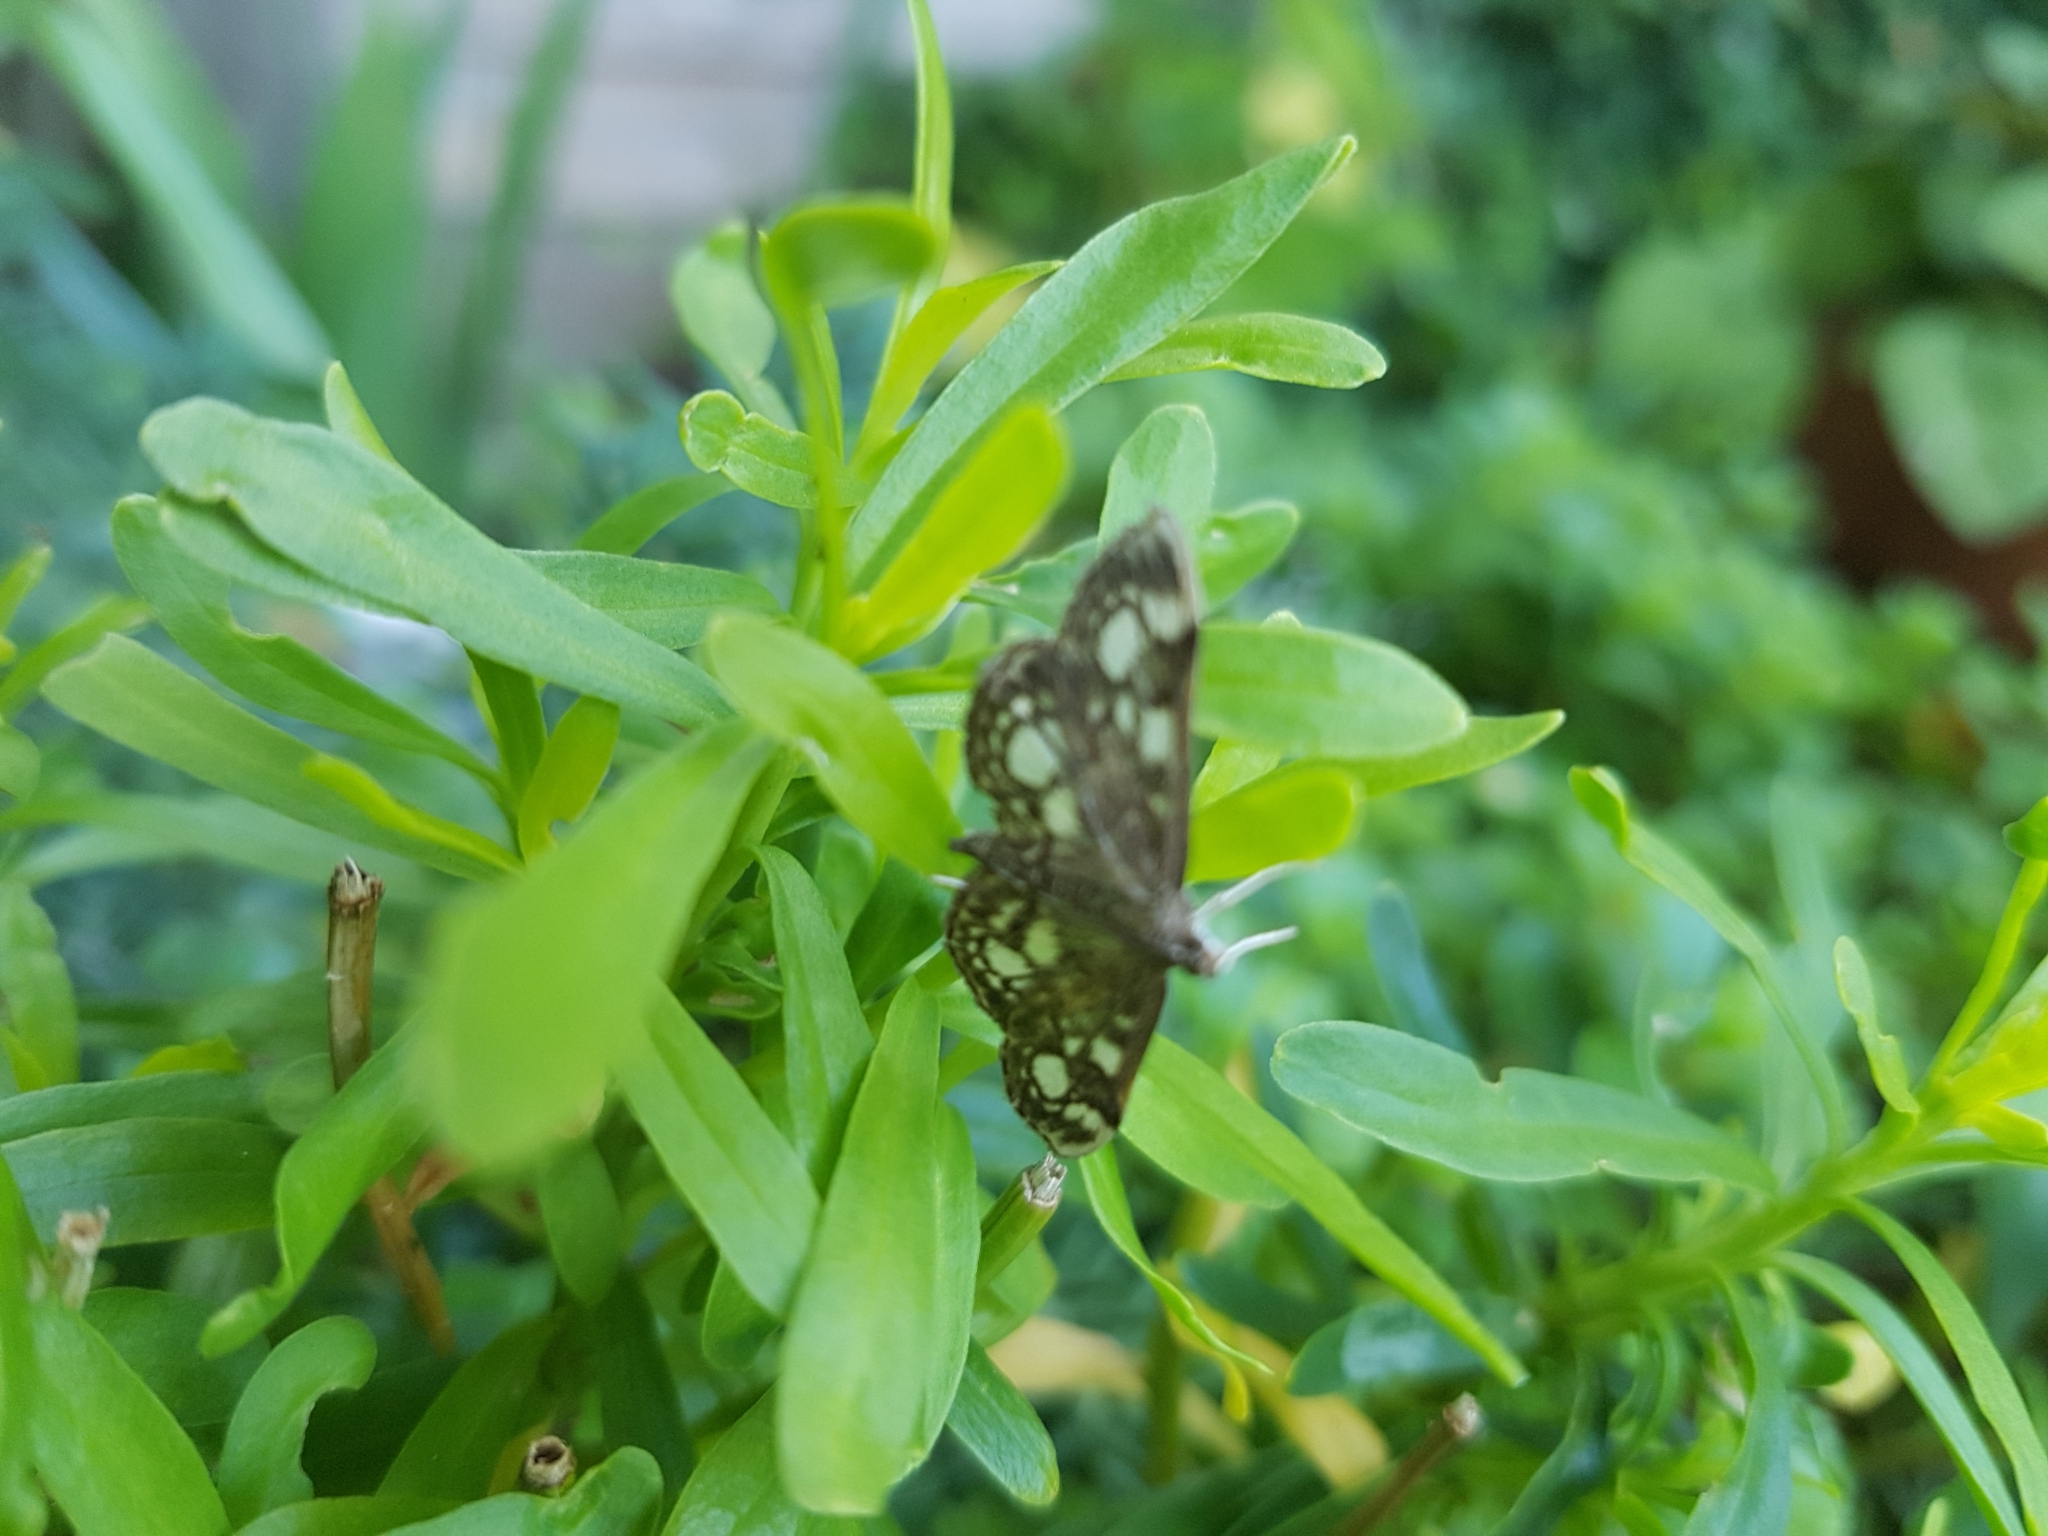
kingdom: Animalia
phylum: Arthropoda
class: Insecta
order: Lepidoptera
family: Crambidae
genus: Anania
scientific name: Anania coronata
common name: Elder pearl
